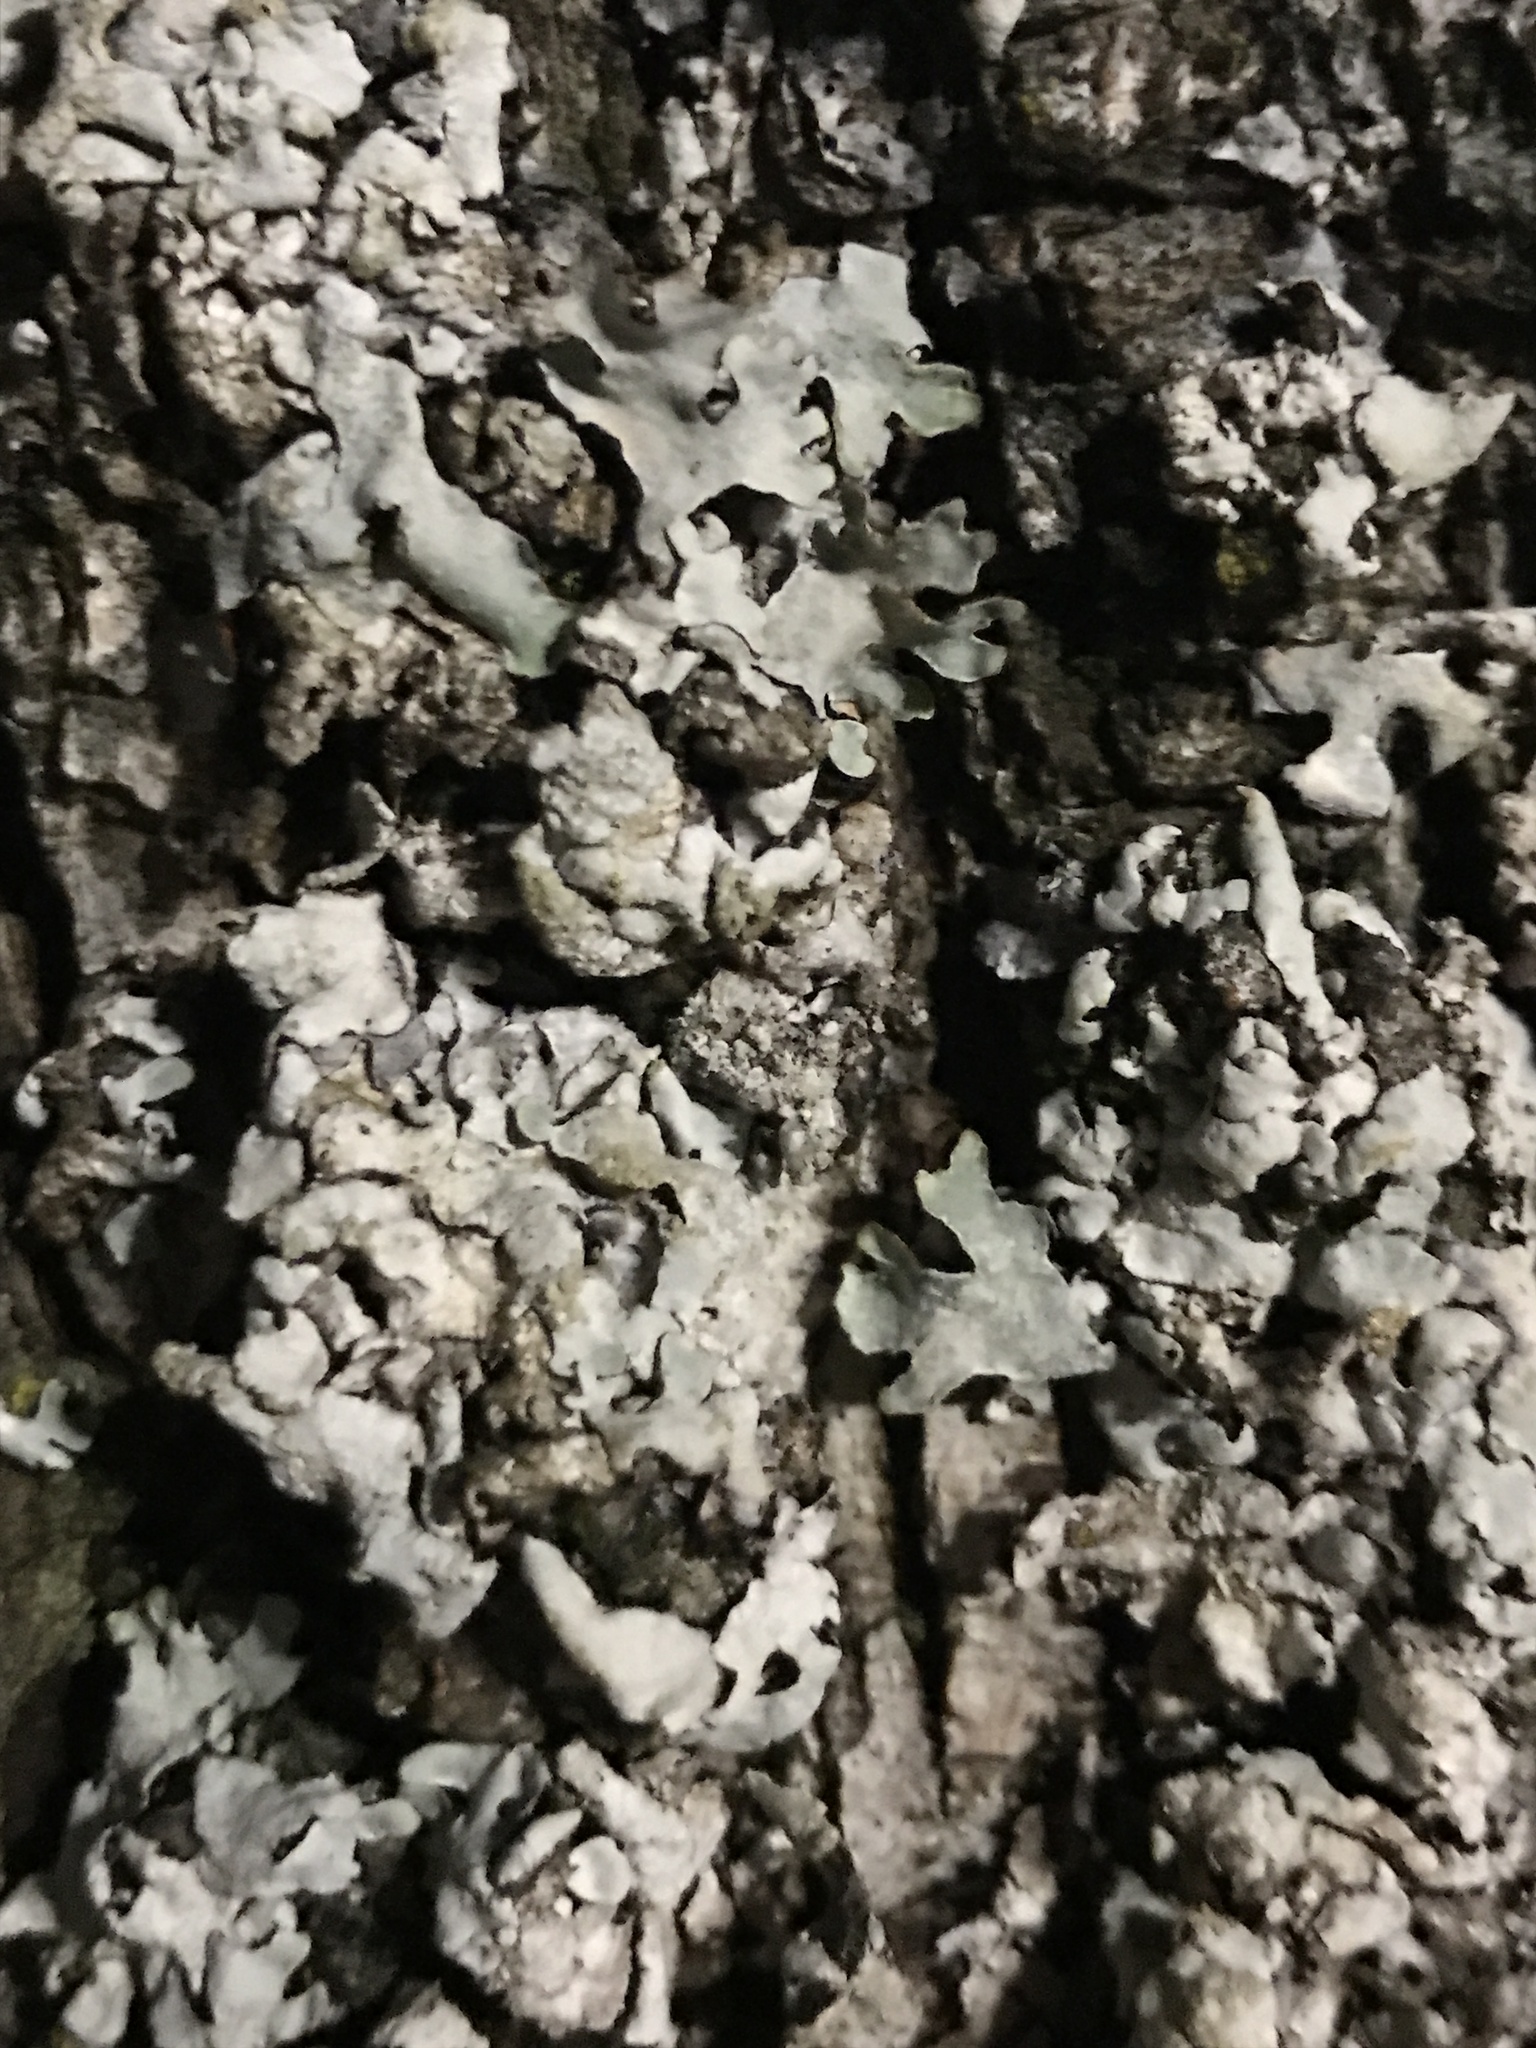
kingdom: Fungi
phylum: Ascomycota
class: Lecanoromycetes
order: Lecanorales
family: Parmeliaceae
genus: Parmelia
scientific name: Parmelia sulcata
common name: Netted shield lichen
